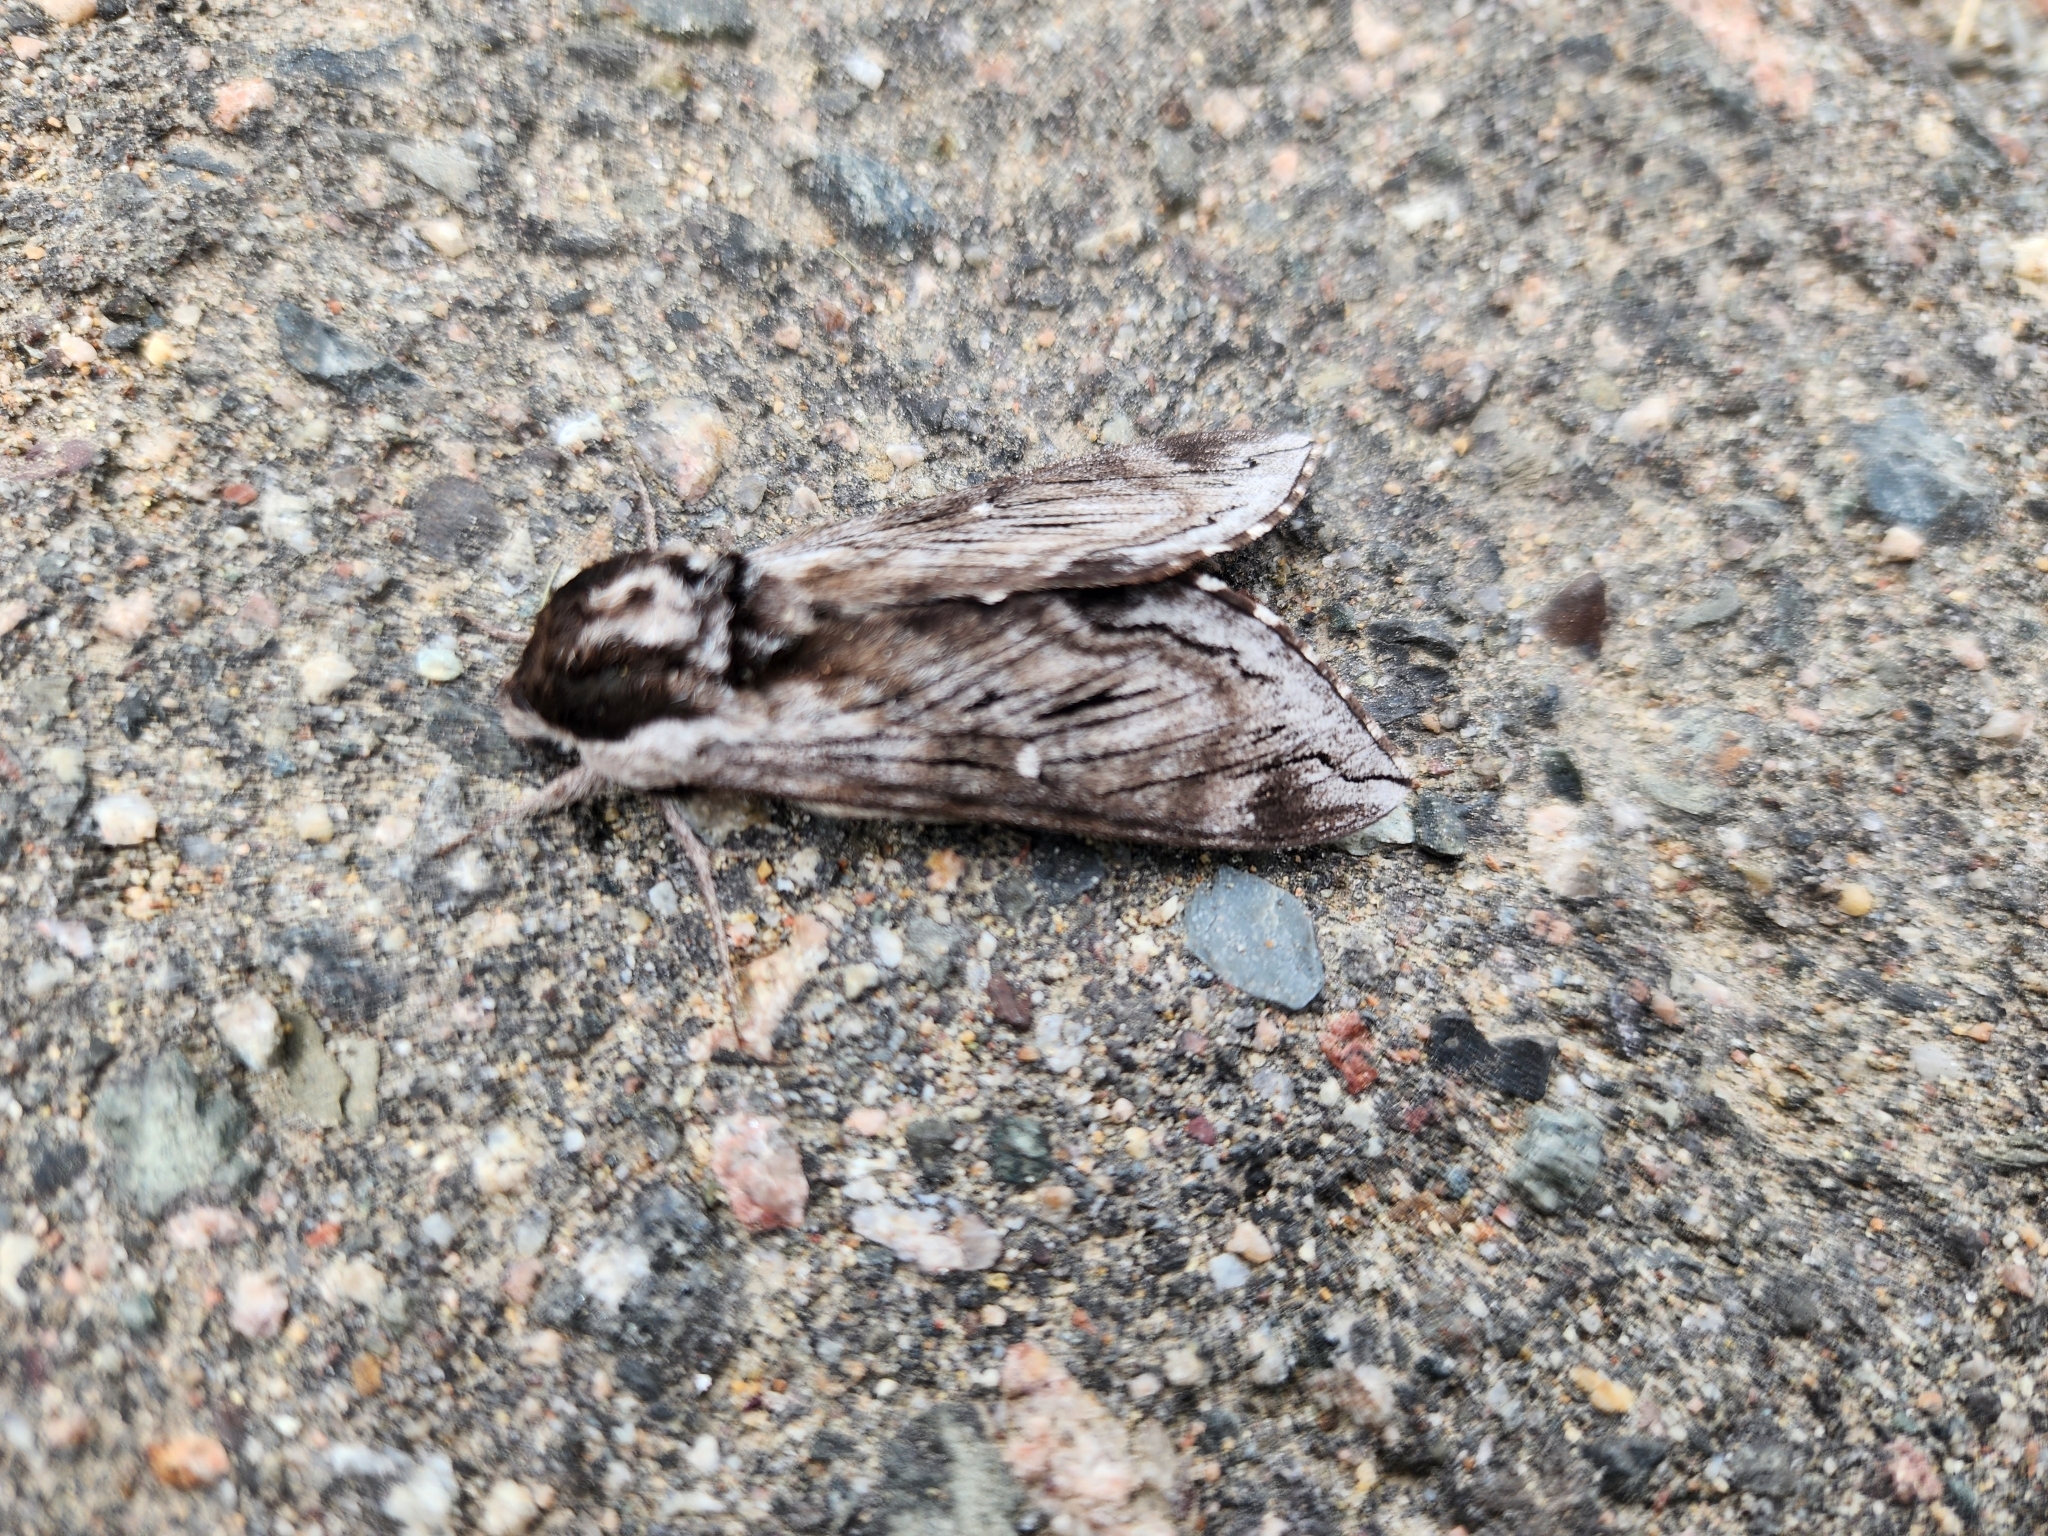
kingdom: Animalia
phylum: Arthropoda
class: Insecta
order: Lepidoptera
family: Sphingidae
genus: Lapara
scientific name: Lapara bombycoides
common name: Northern pine sphinx
